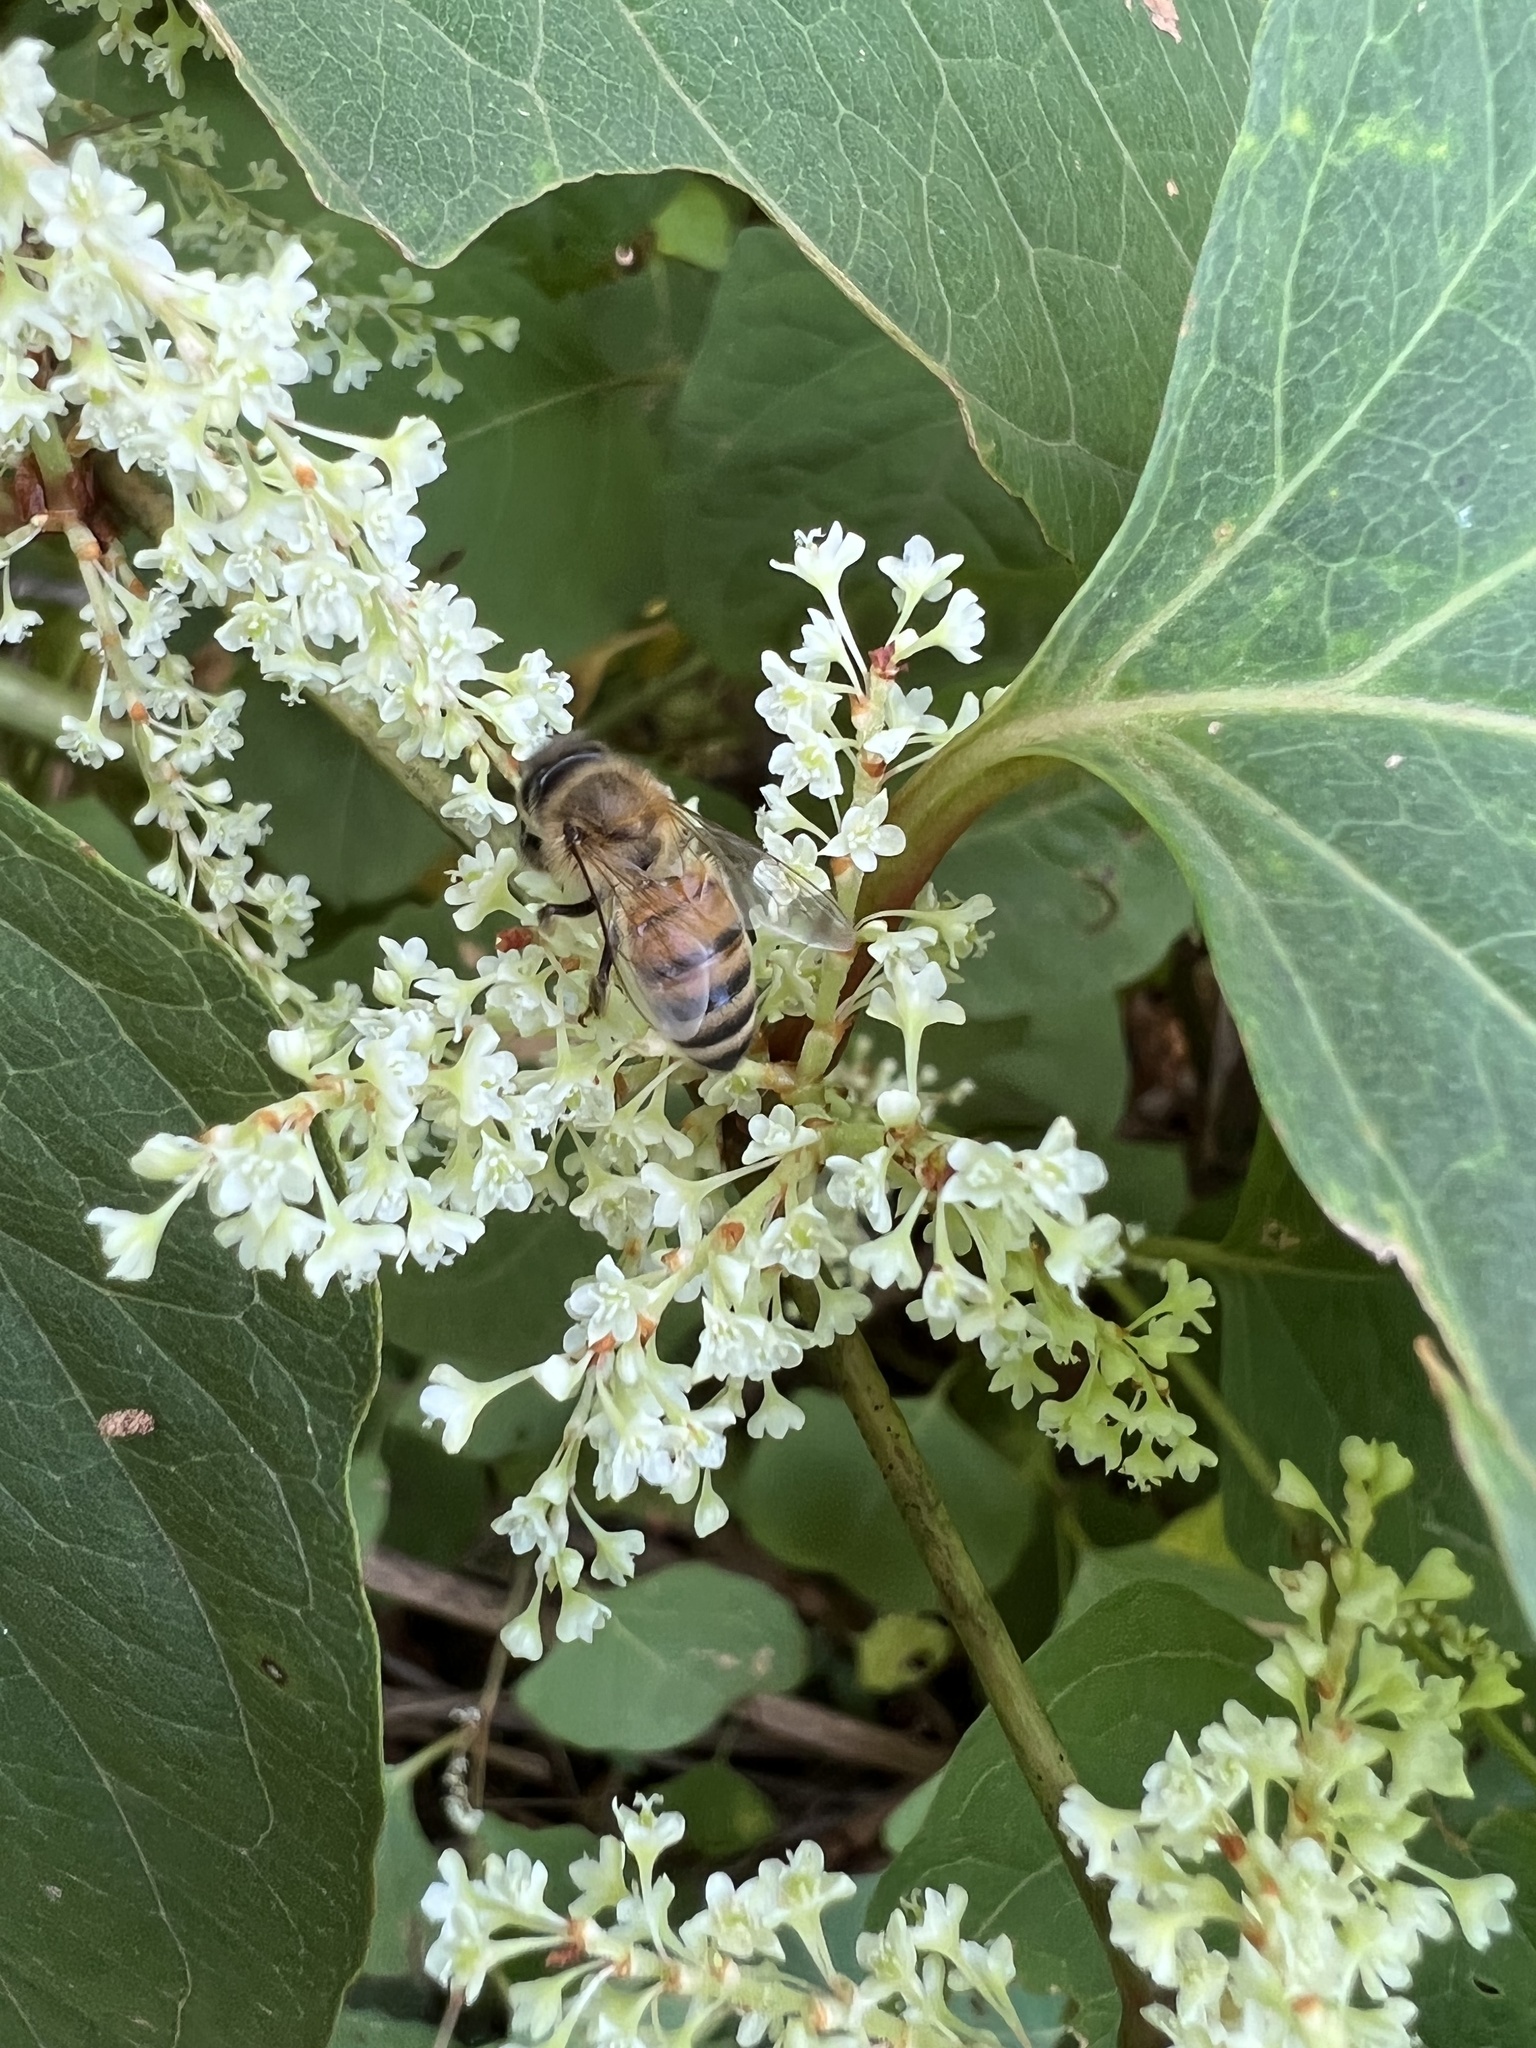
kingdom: Animalia
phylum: Arthropoda
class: Insecta
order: Hymenoptera
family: Apidae
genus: Apis
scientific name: Apis mellifera
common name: Honey bee
